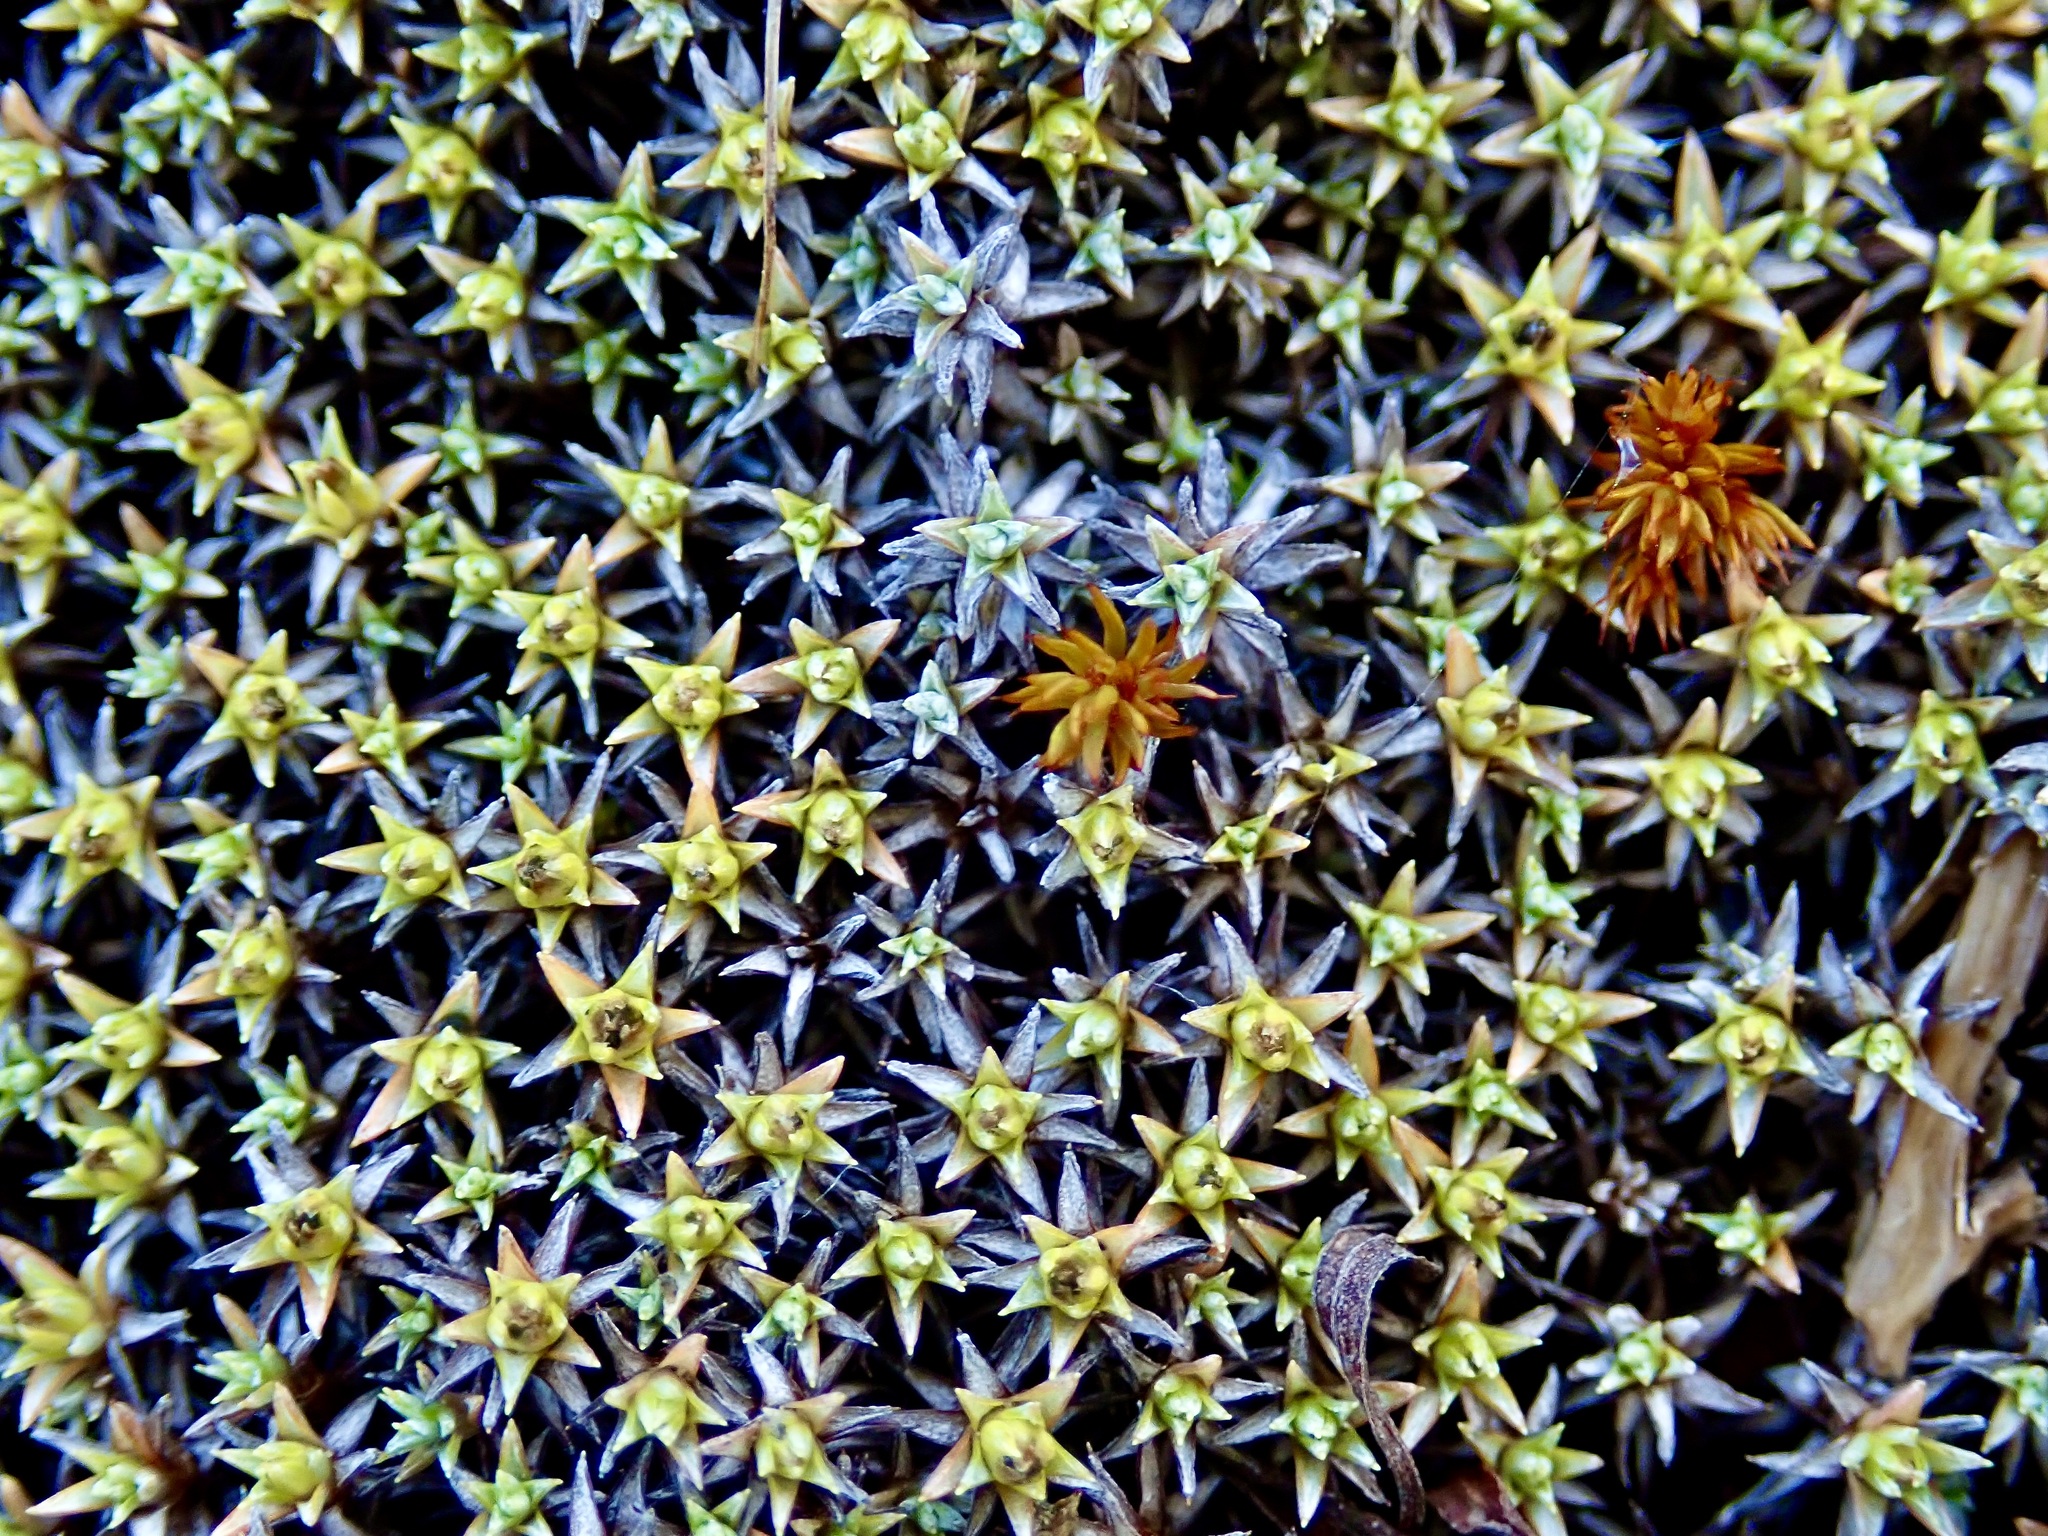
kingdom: Plantae
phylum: Tracheophyta
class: Magnoliopsida
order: Asterales
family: Asteraceae
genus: Raoulia
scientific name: Raoulia tenuicaulis
